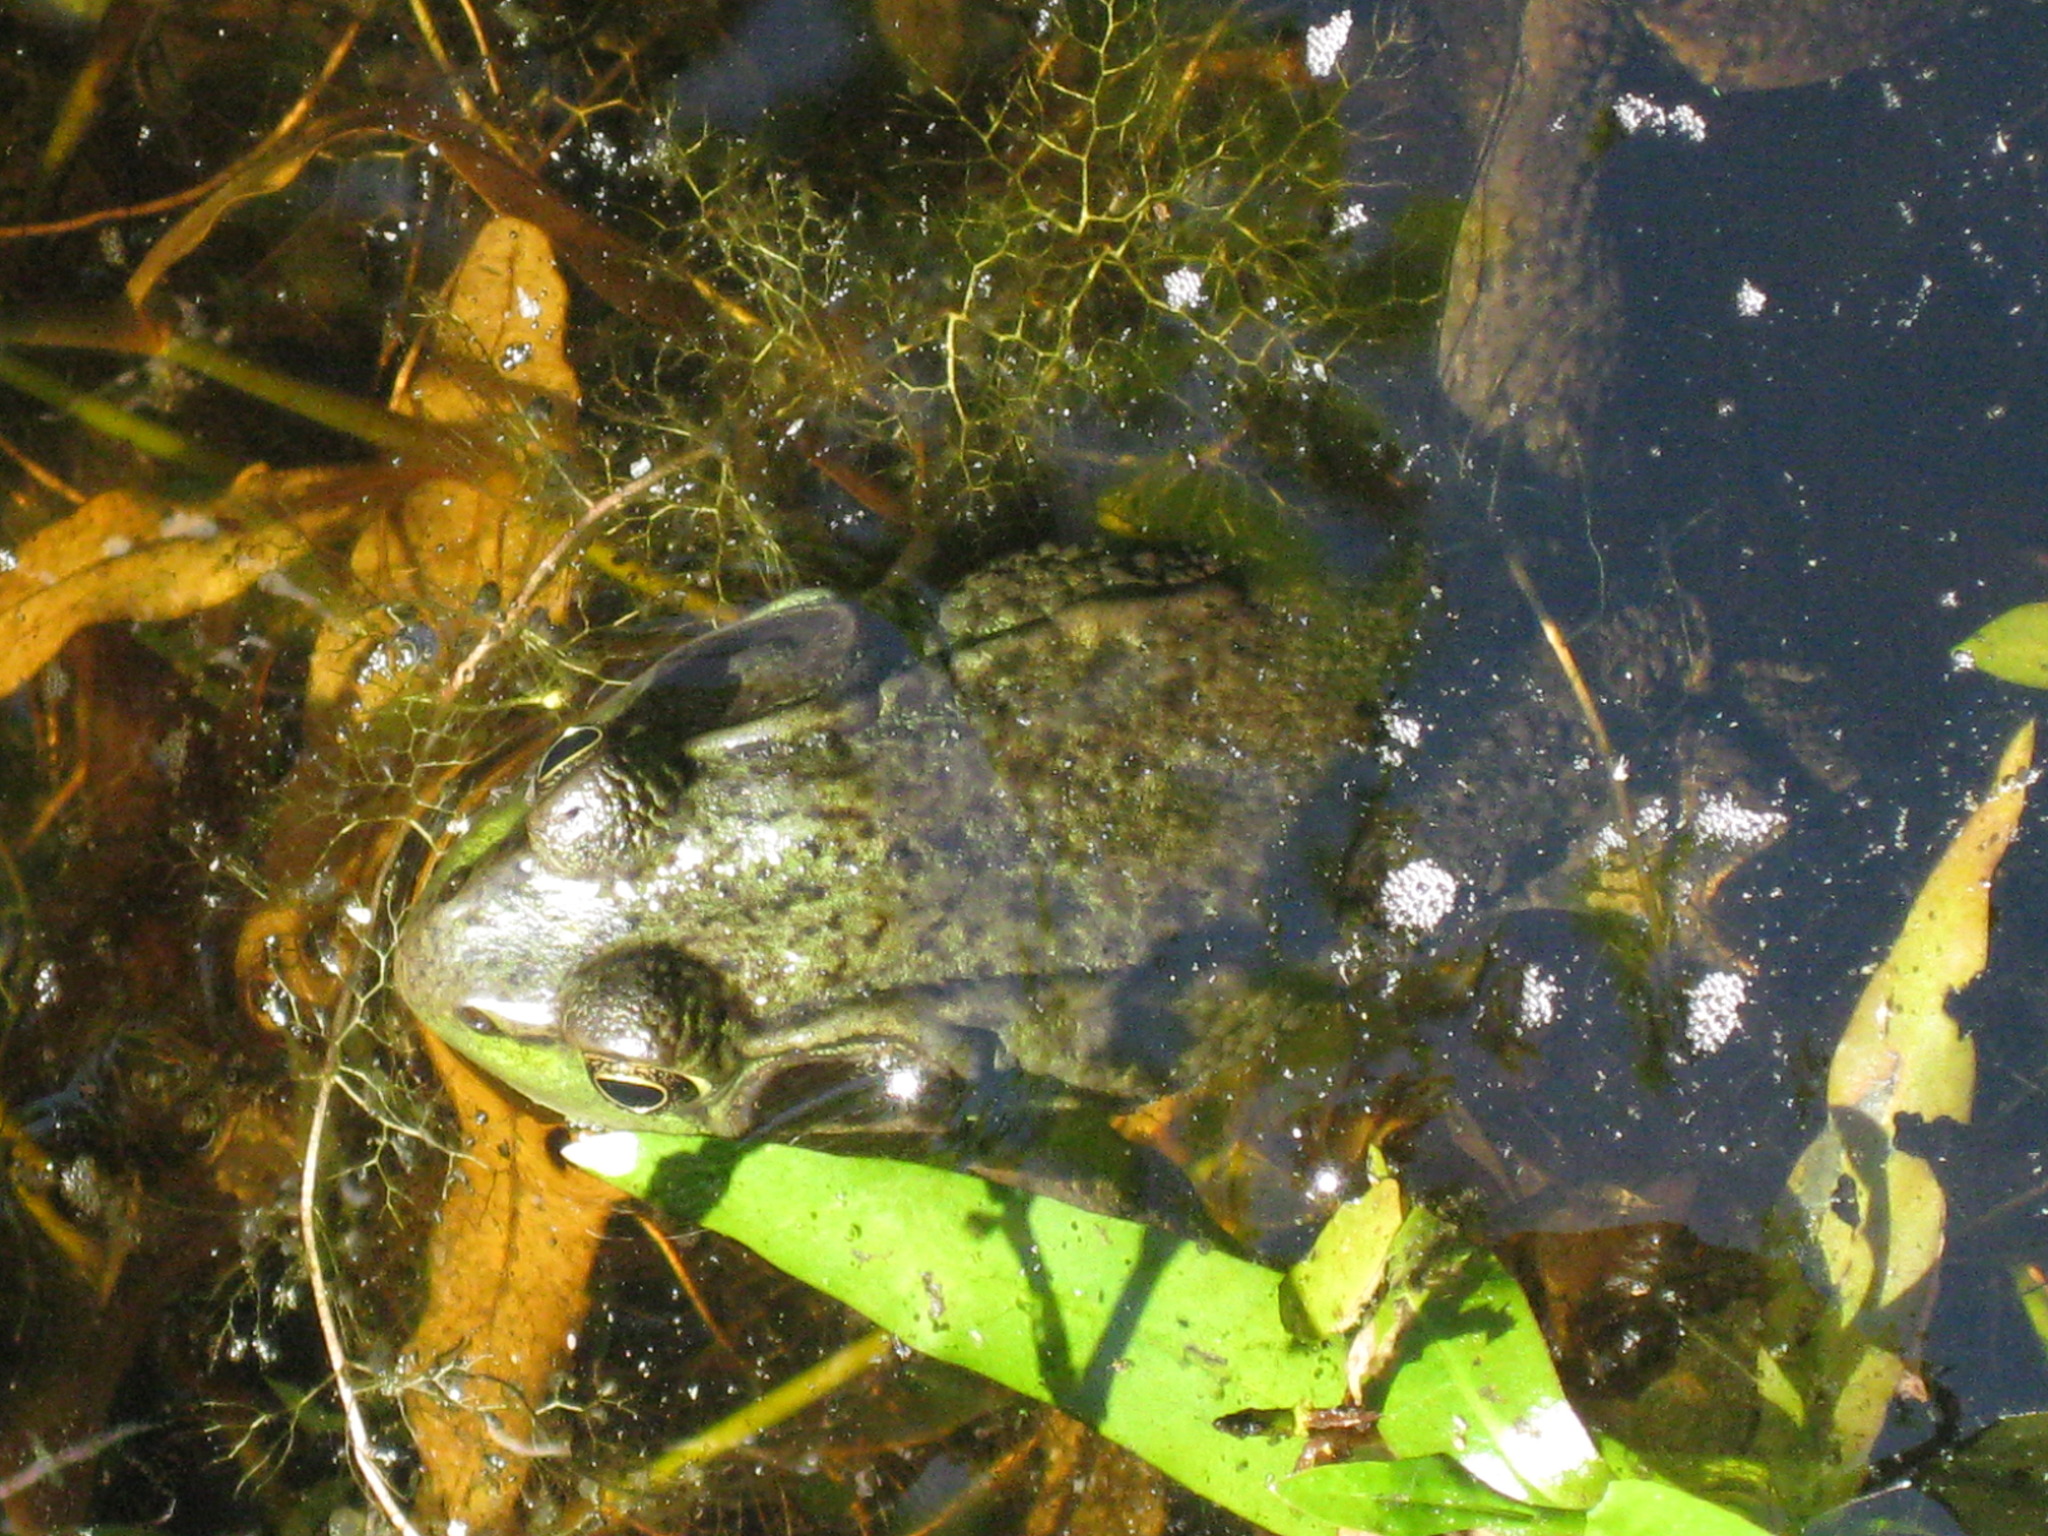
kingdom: Animalia
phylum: Chordata
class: Amphibia
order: Anura
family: Ranidae
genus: Lithobates
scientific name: Lithobates clamitans
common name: Green frog
